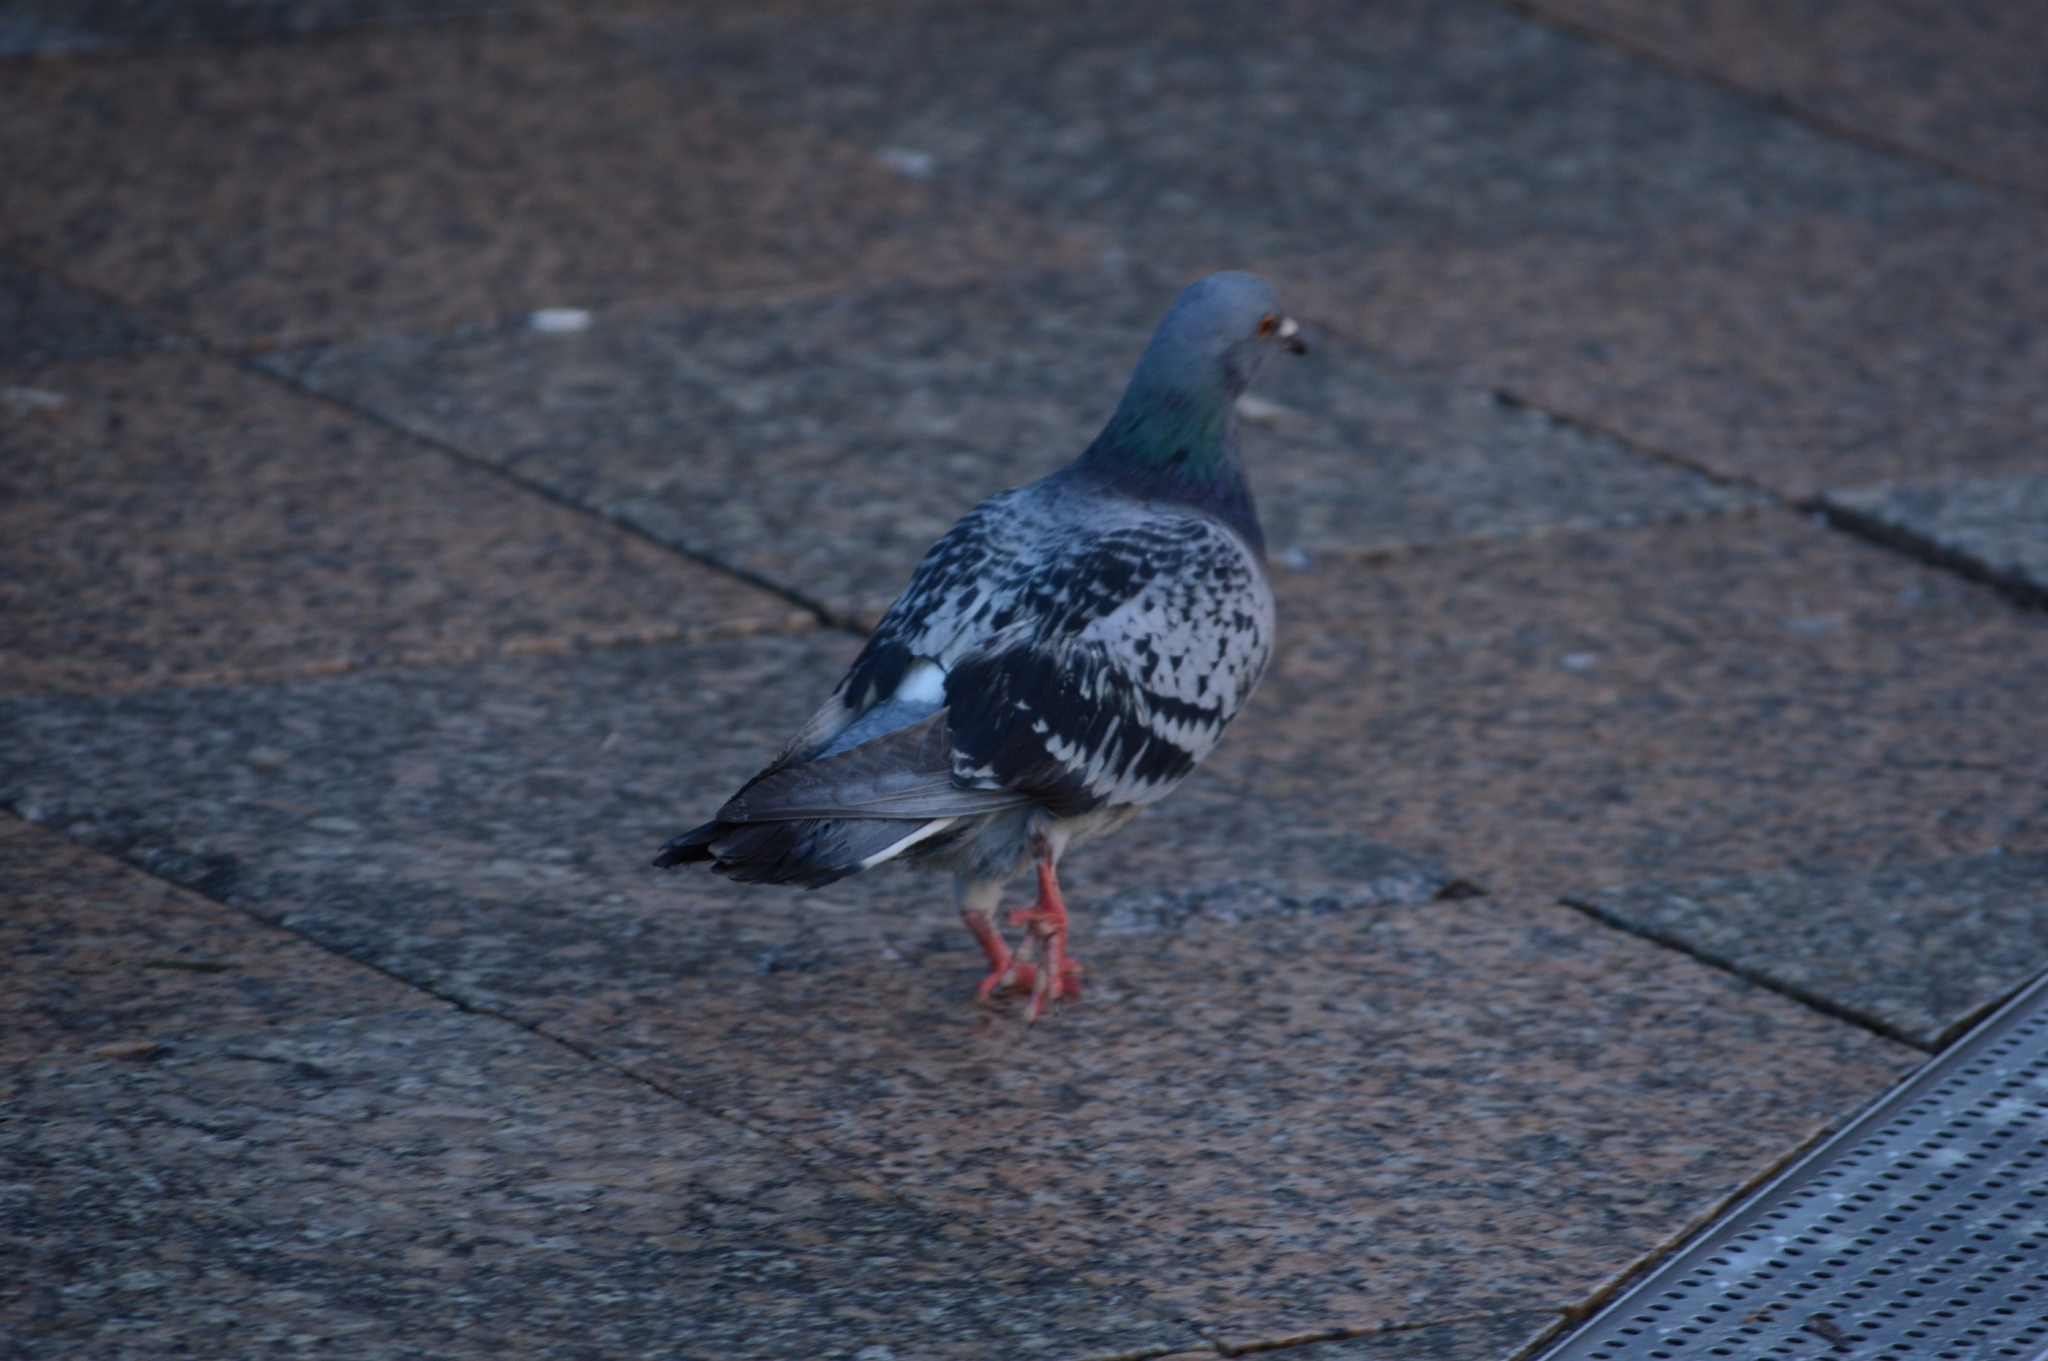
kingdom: Animalia
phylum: Chordata
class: Aves
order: Columbiformes
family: Columbidae
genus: Columba
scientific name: Columba livia
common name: Rock pigeon
